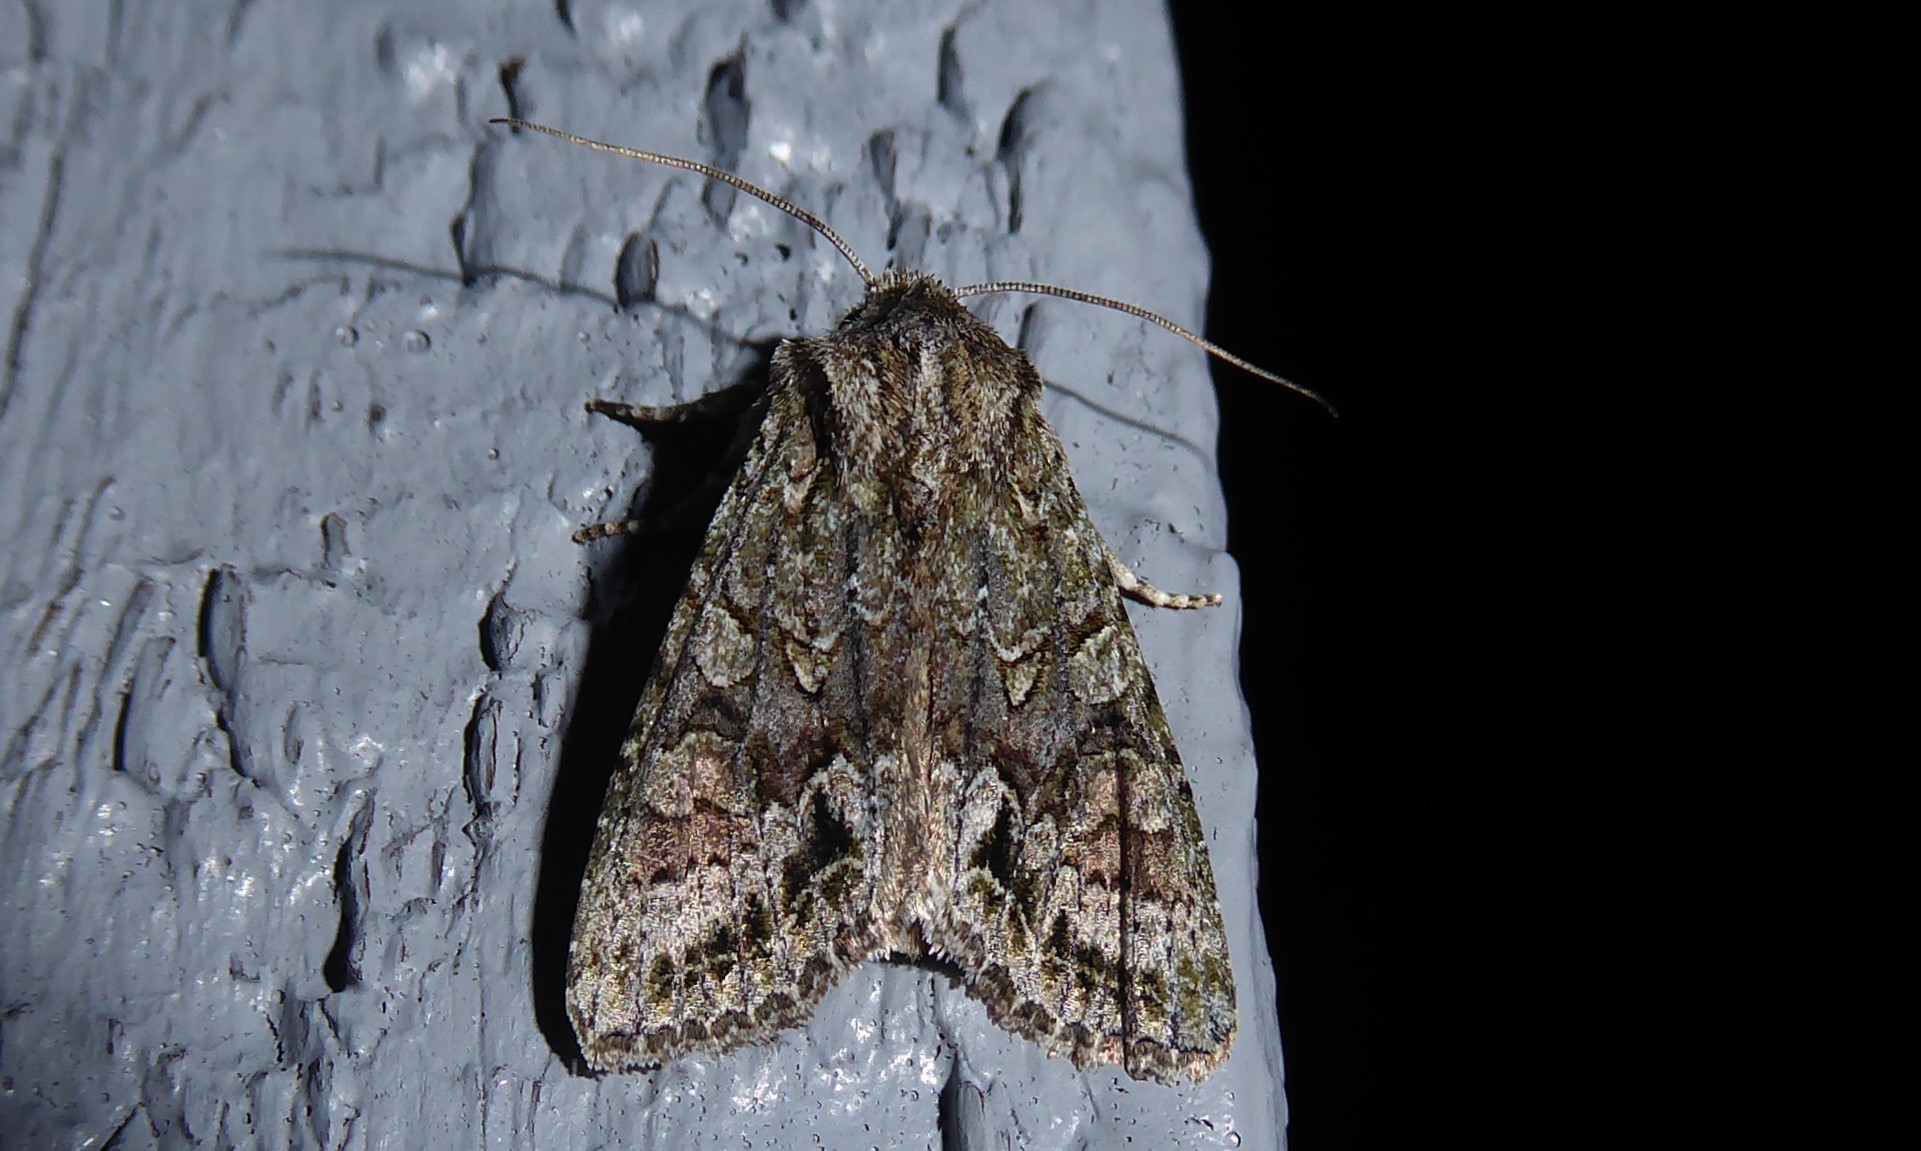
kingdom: Animalia
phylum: Arthropoda
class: Insecta
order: Lepidoptera
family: Noctuidae
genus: Ichneutica
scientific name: Ichneutica mutans
